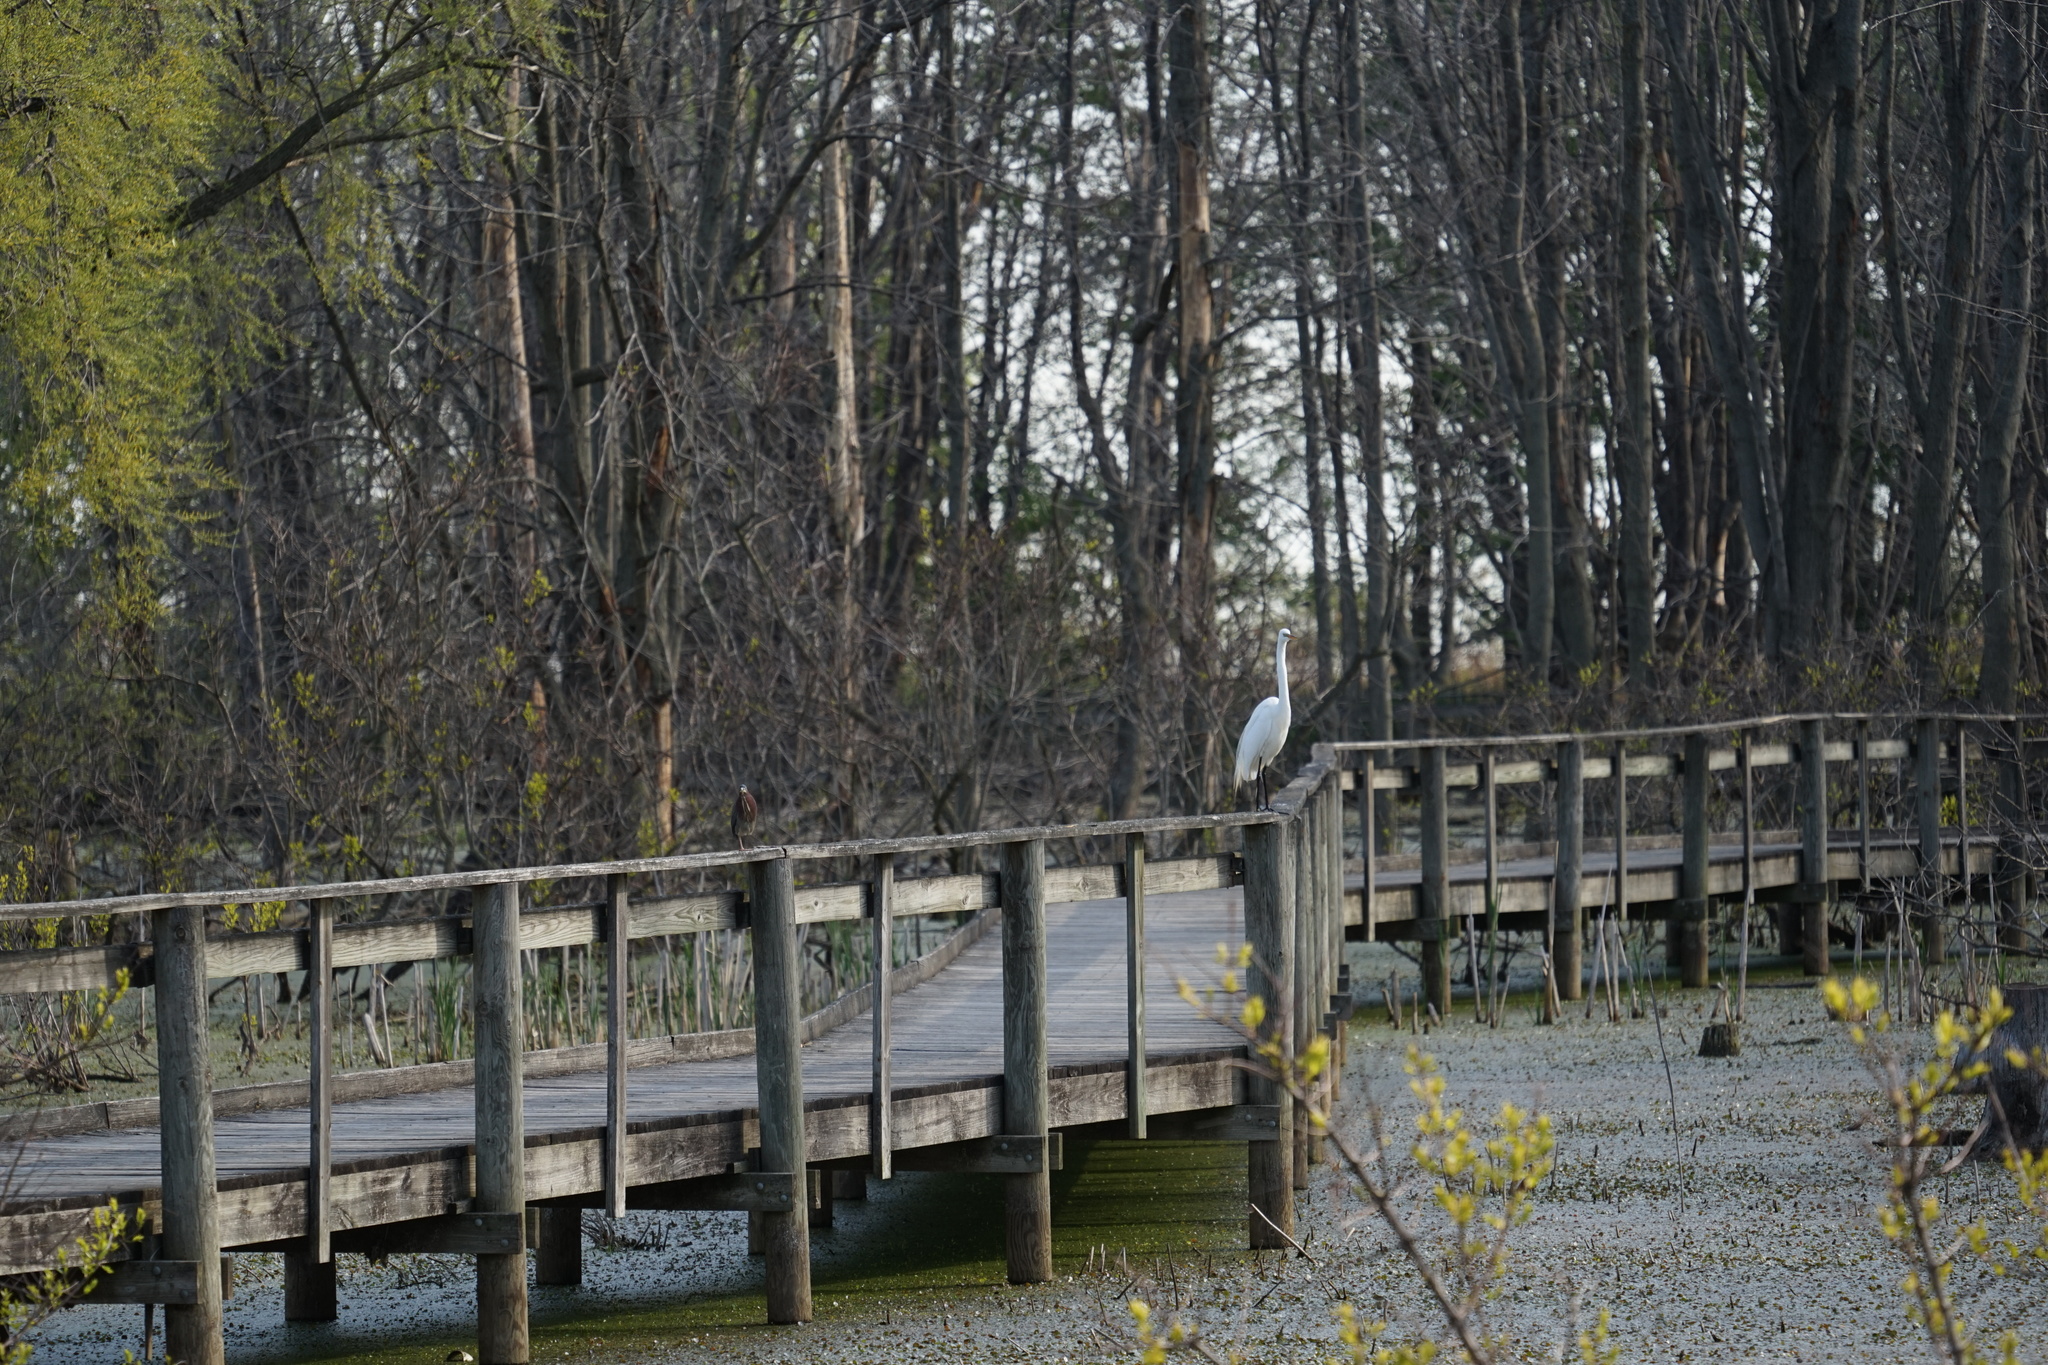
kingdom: Animalia
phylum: Chordata
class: Aves
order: Pelecaniformes
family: Ardeidae
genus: Ardea
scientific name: Ardea alba
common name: Great egret
